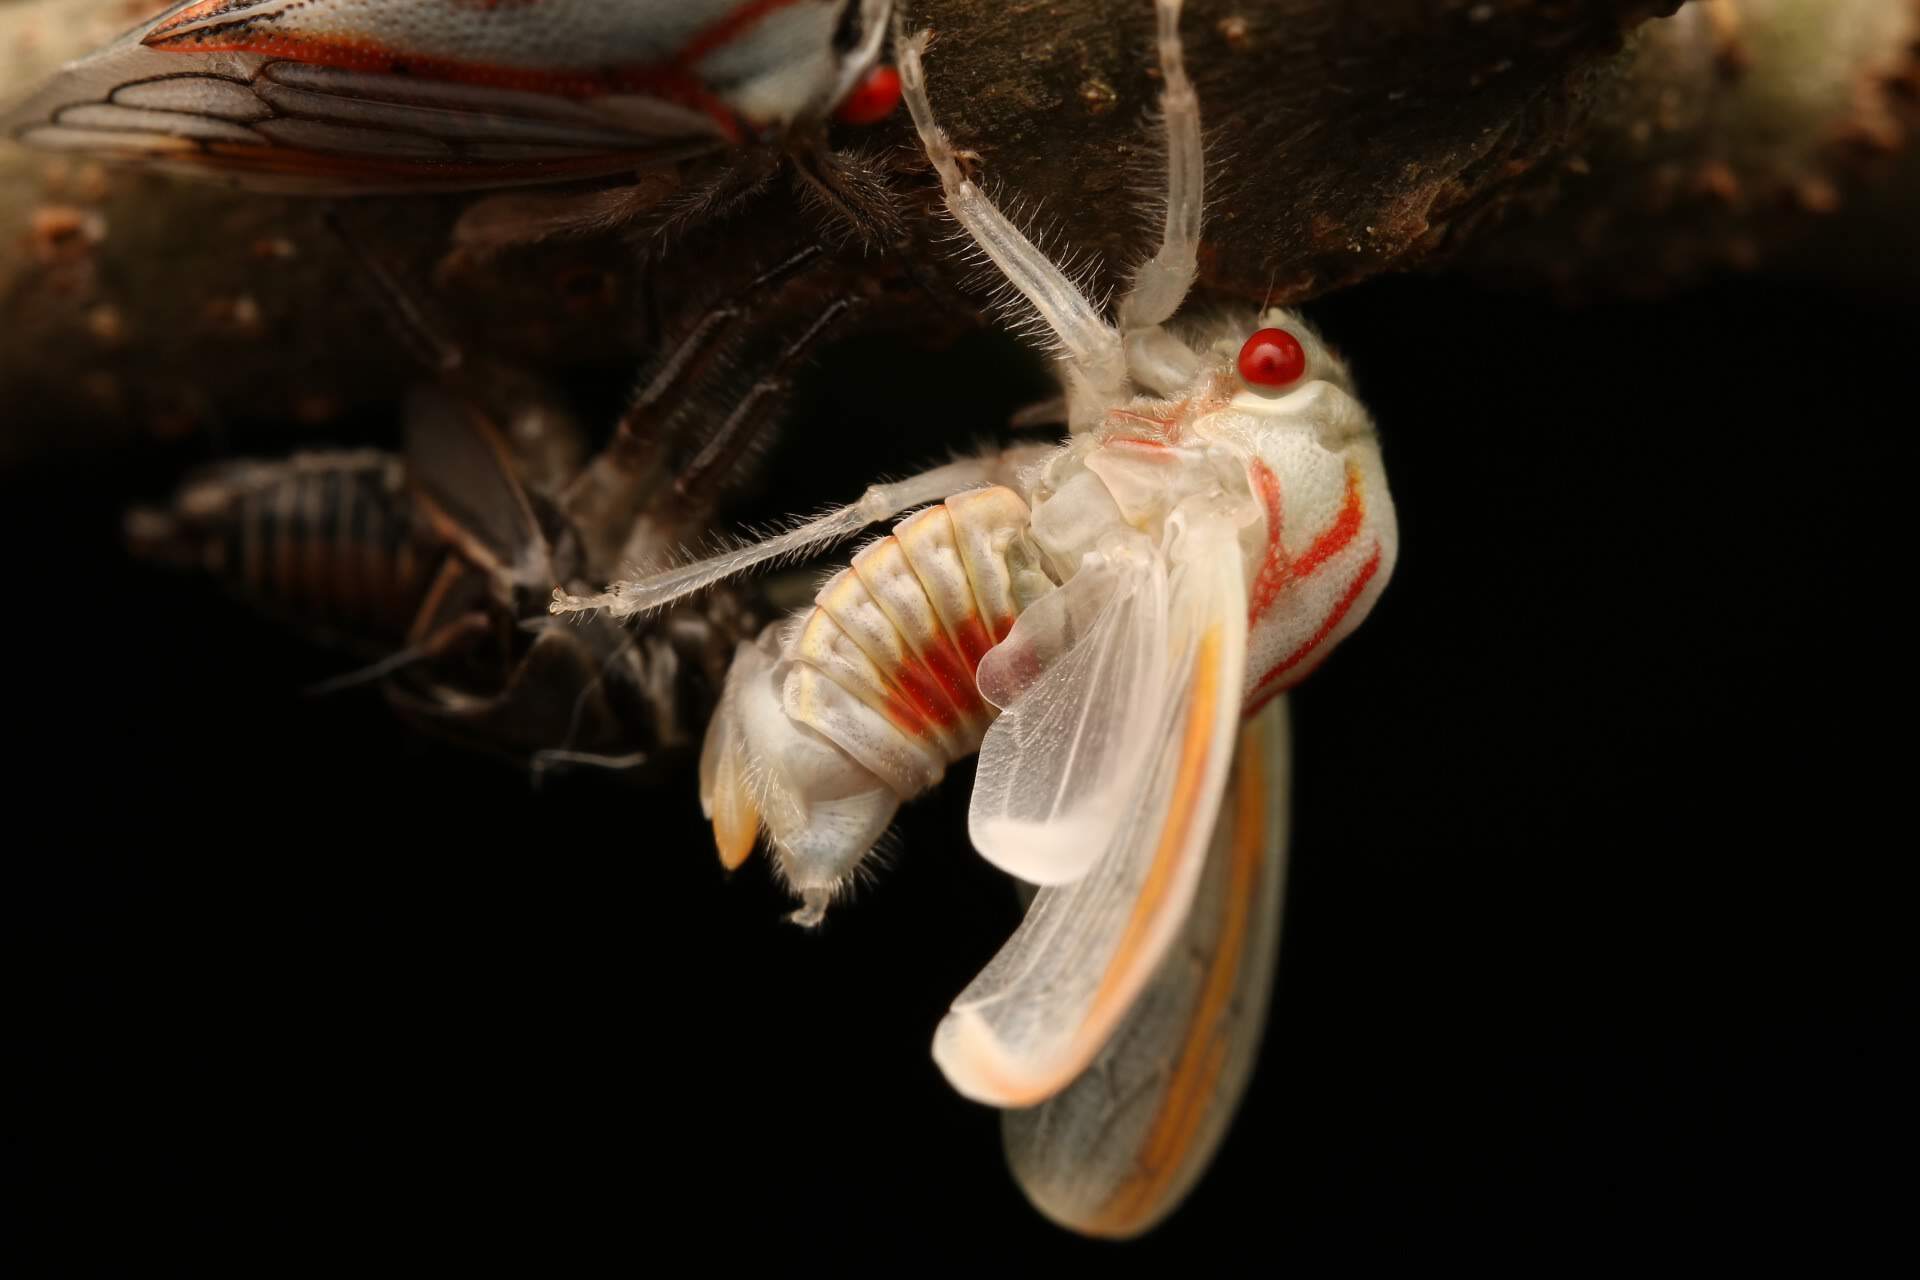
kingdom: Animalia
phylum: Arthropoda
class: Insecta
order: Hemiptera
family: Membracidae
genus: Platycotis
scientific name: Platycotis vittatus
